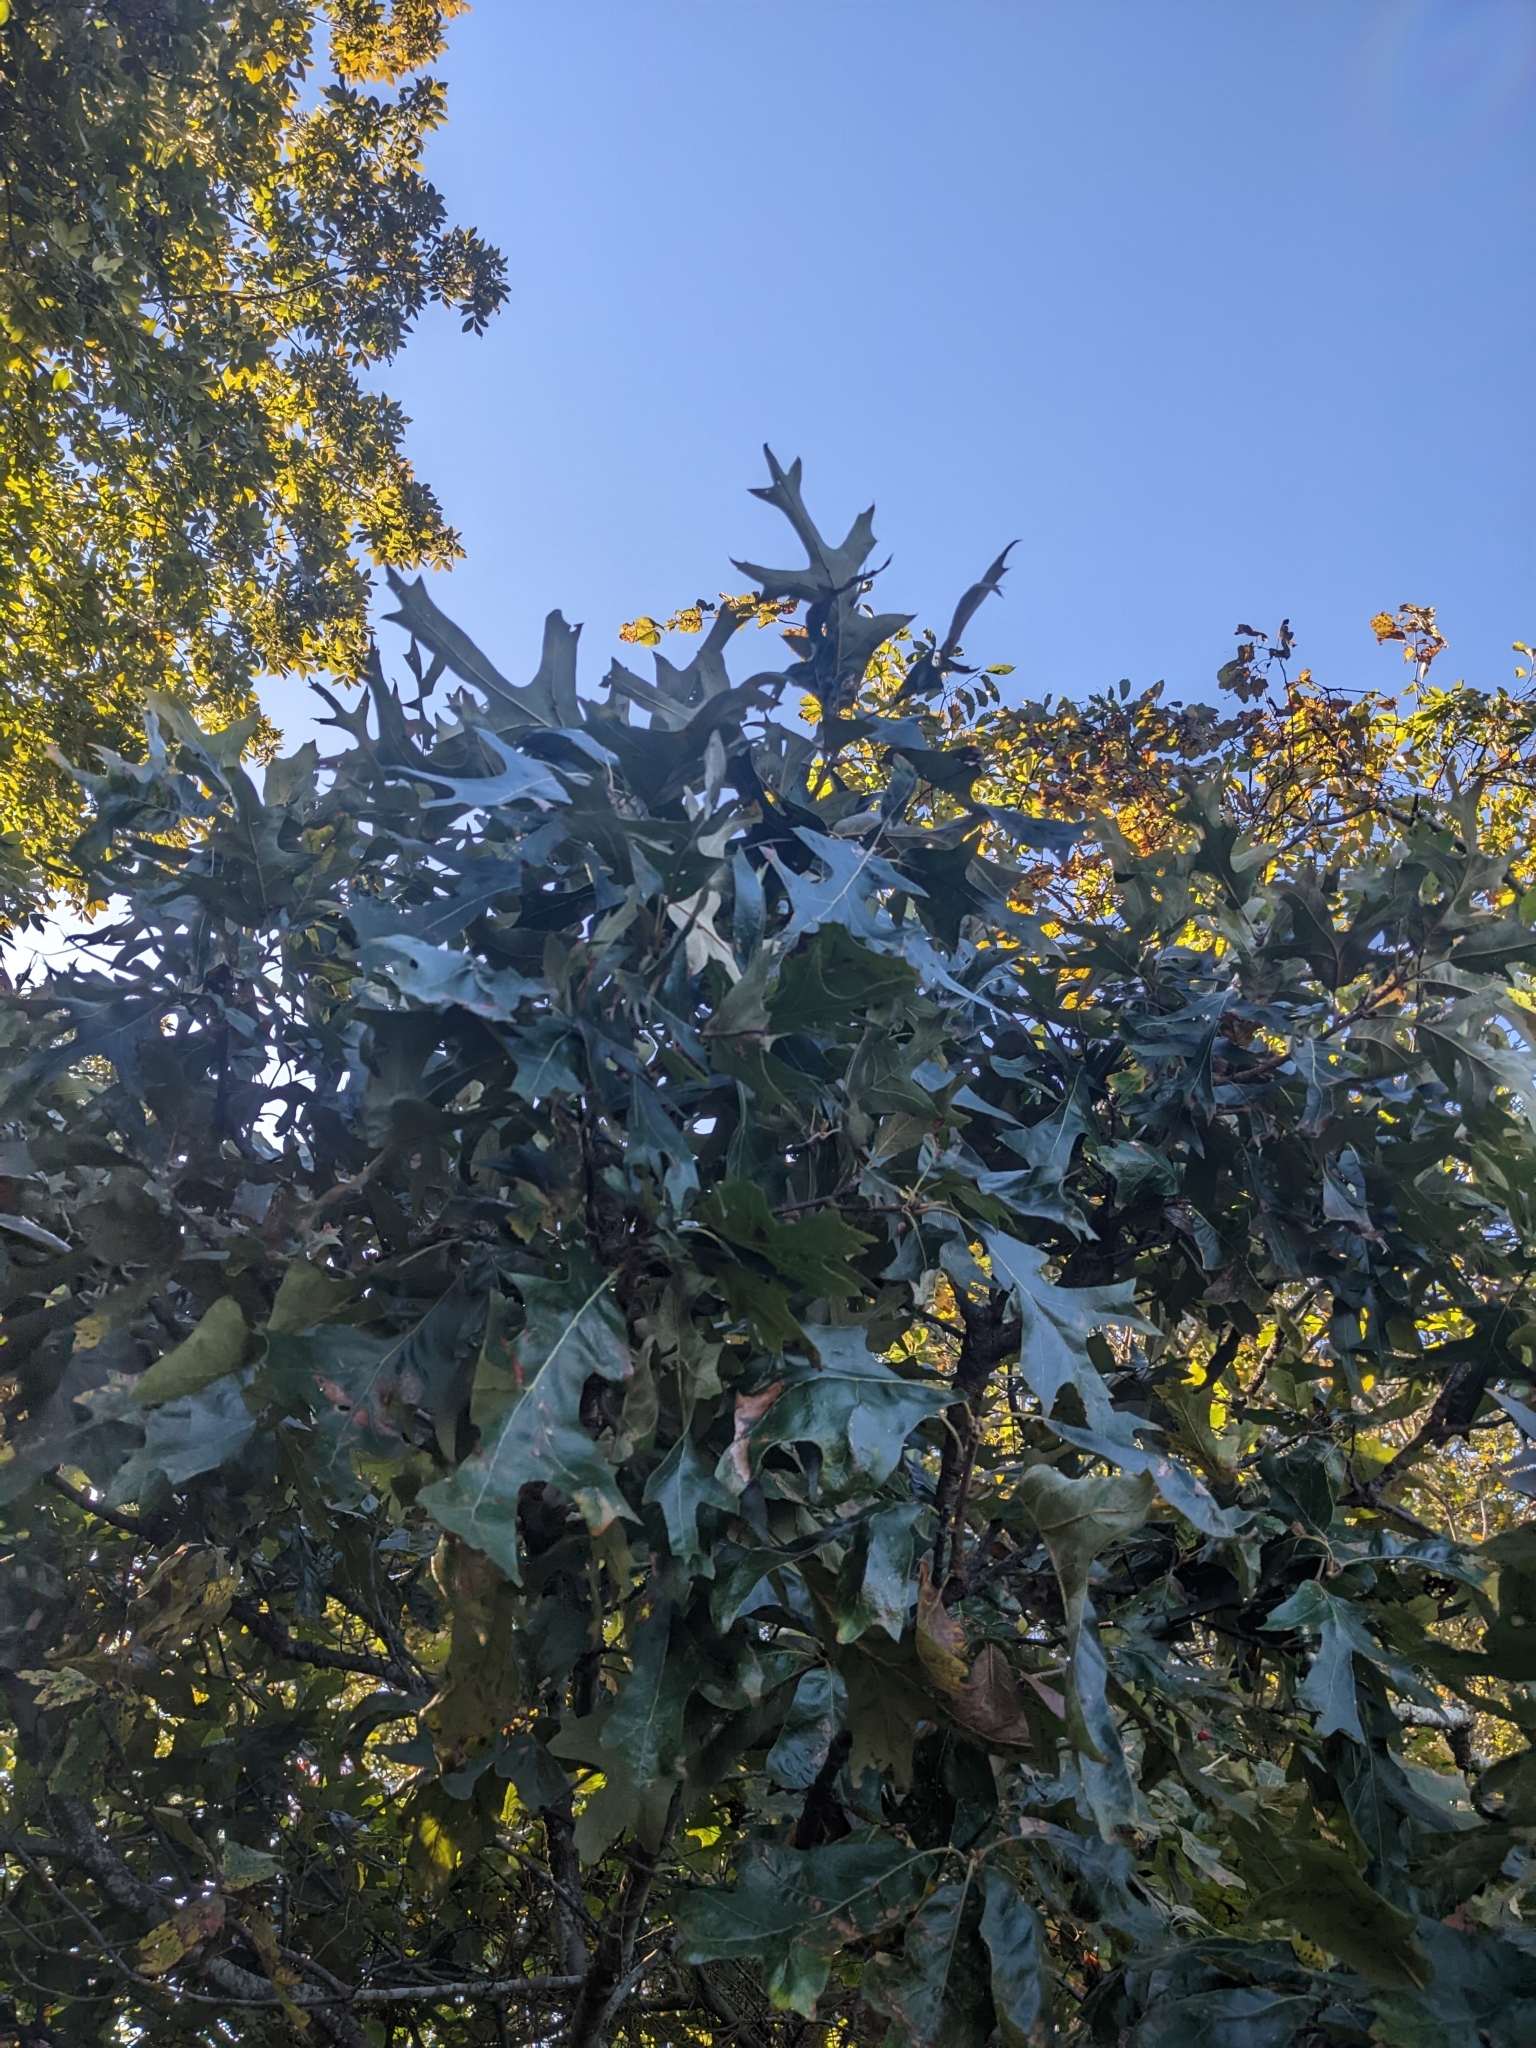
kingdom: Plantae
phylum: Tracheophyta
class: Magnoliopsida
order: Fagales
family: Fagaceae
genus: Quercus
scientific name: Quercus falcata
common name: Southern red oak
